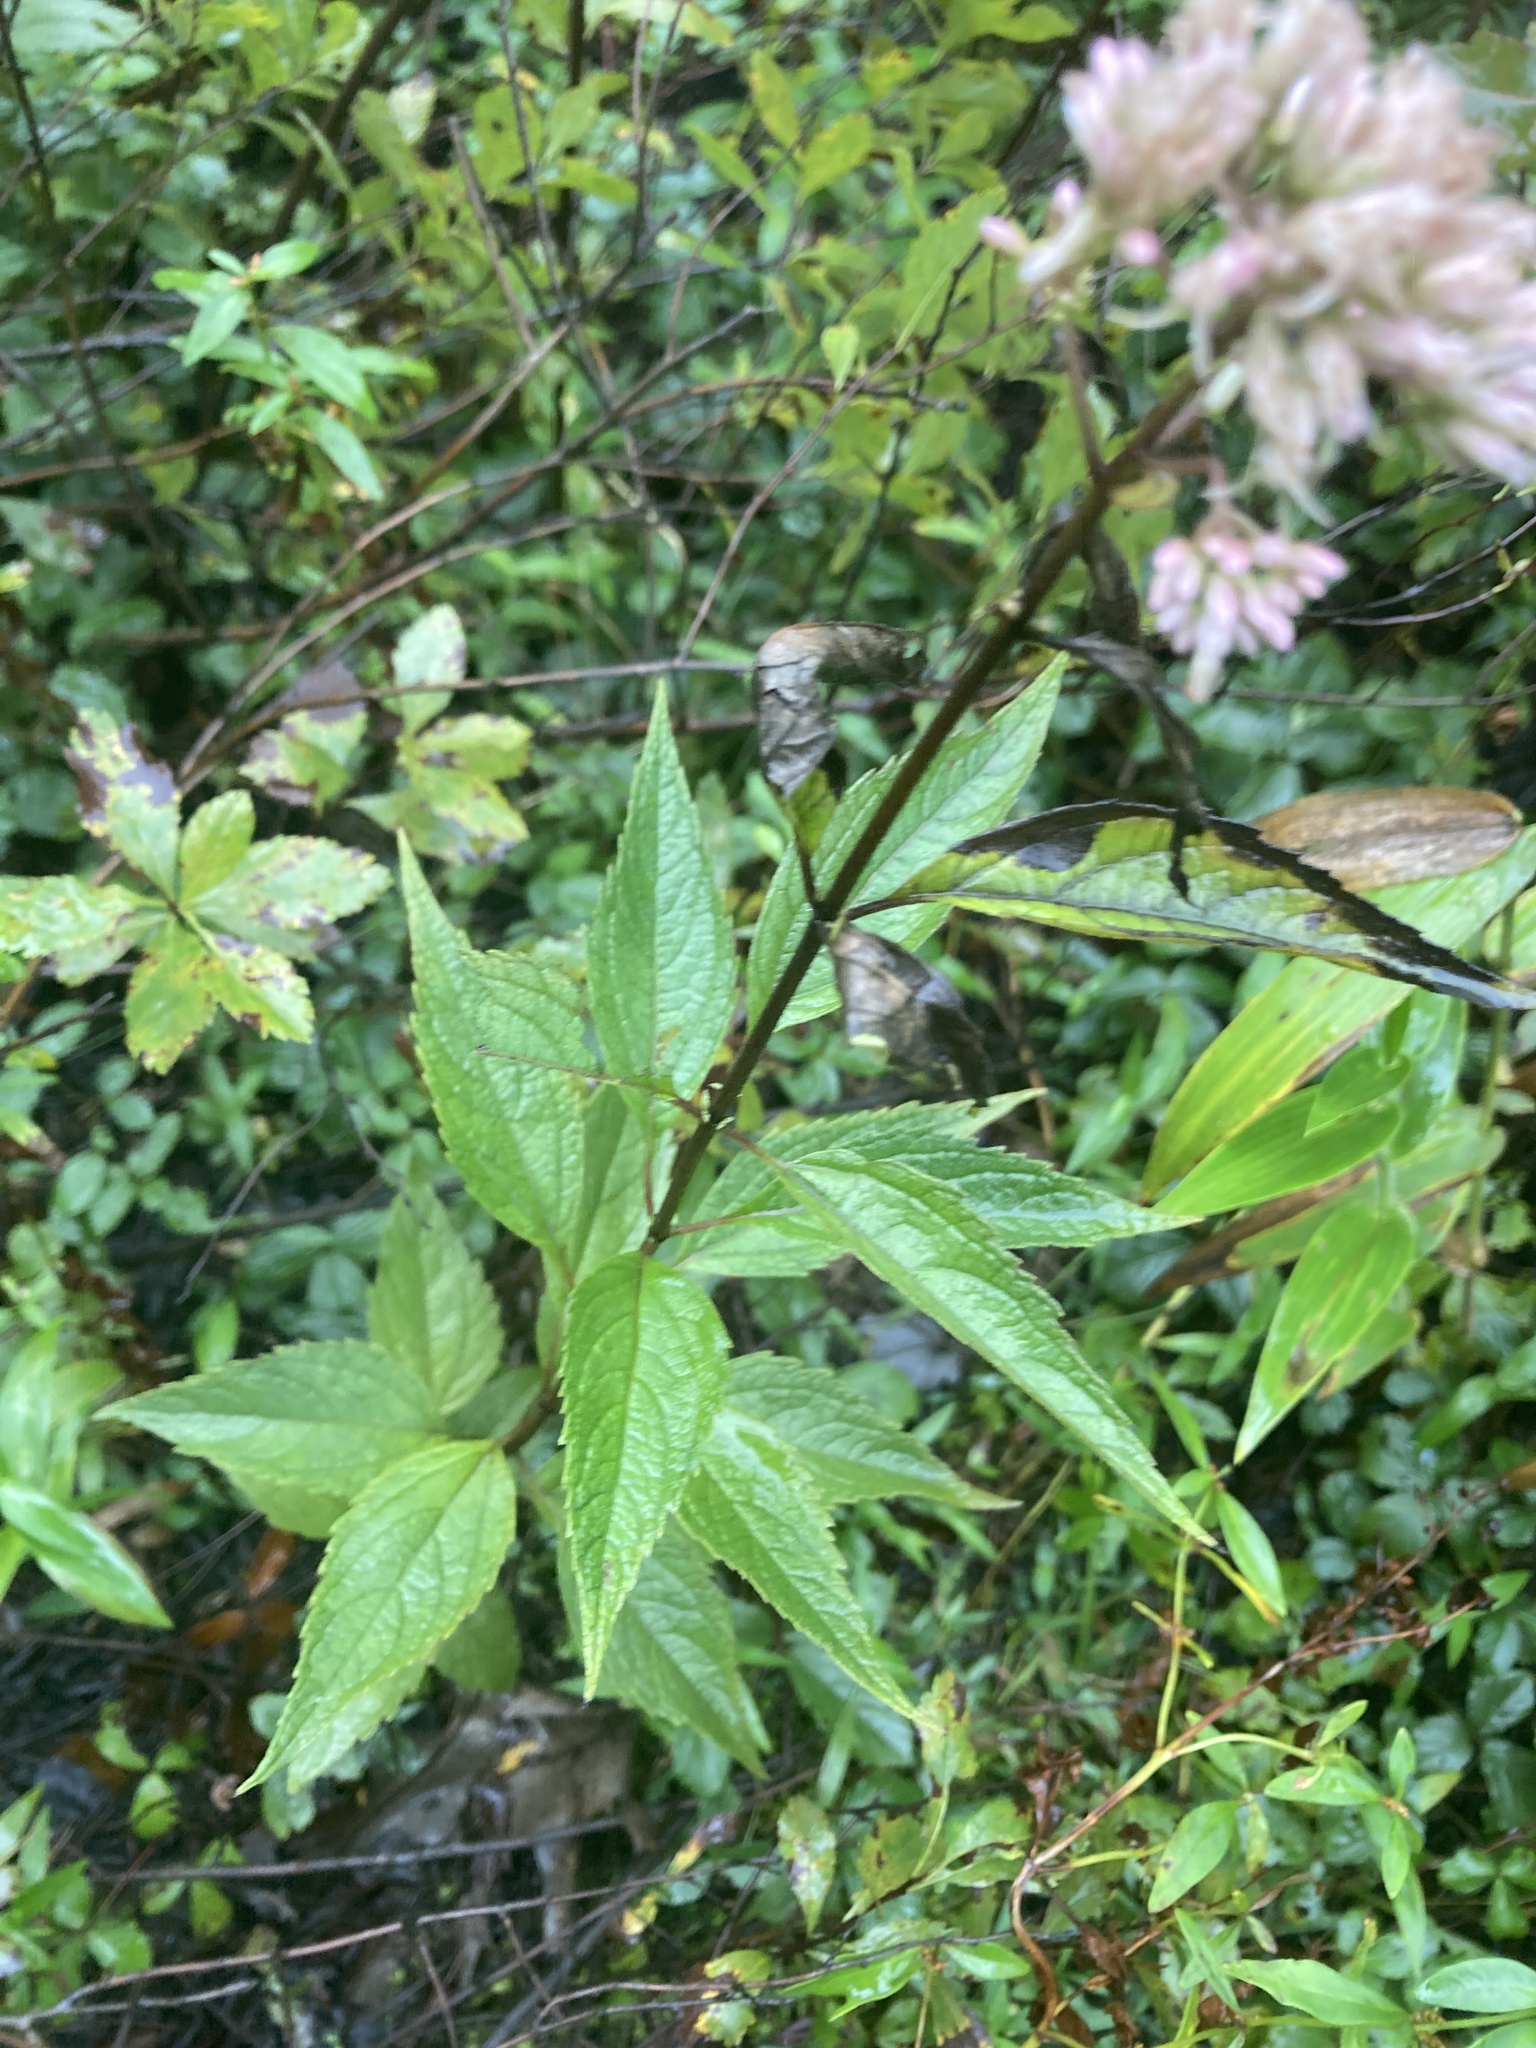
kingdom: Plantae
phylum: Tracheophyta
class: Magnoliopsida
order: Asterales
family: Asteraceae
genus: Eutrochium
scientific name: Eutrochium dubium
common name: Coastal plain joe pye weed
